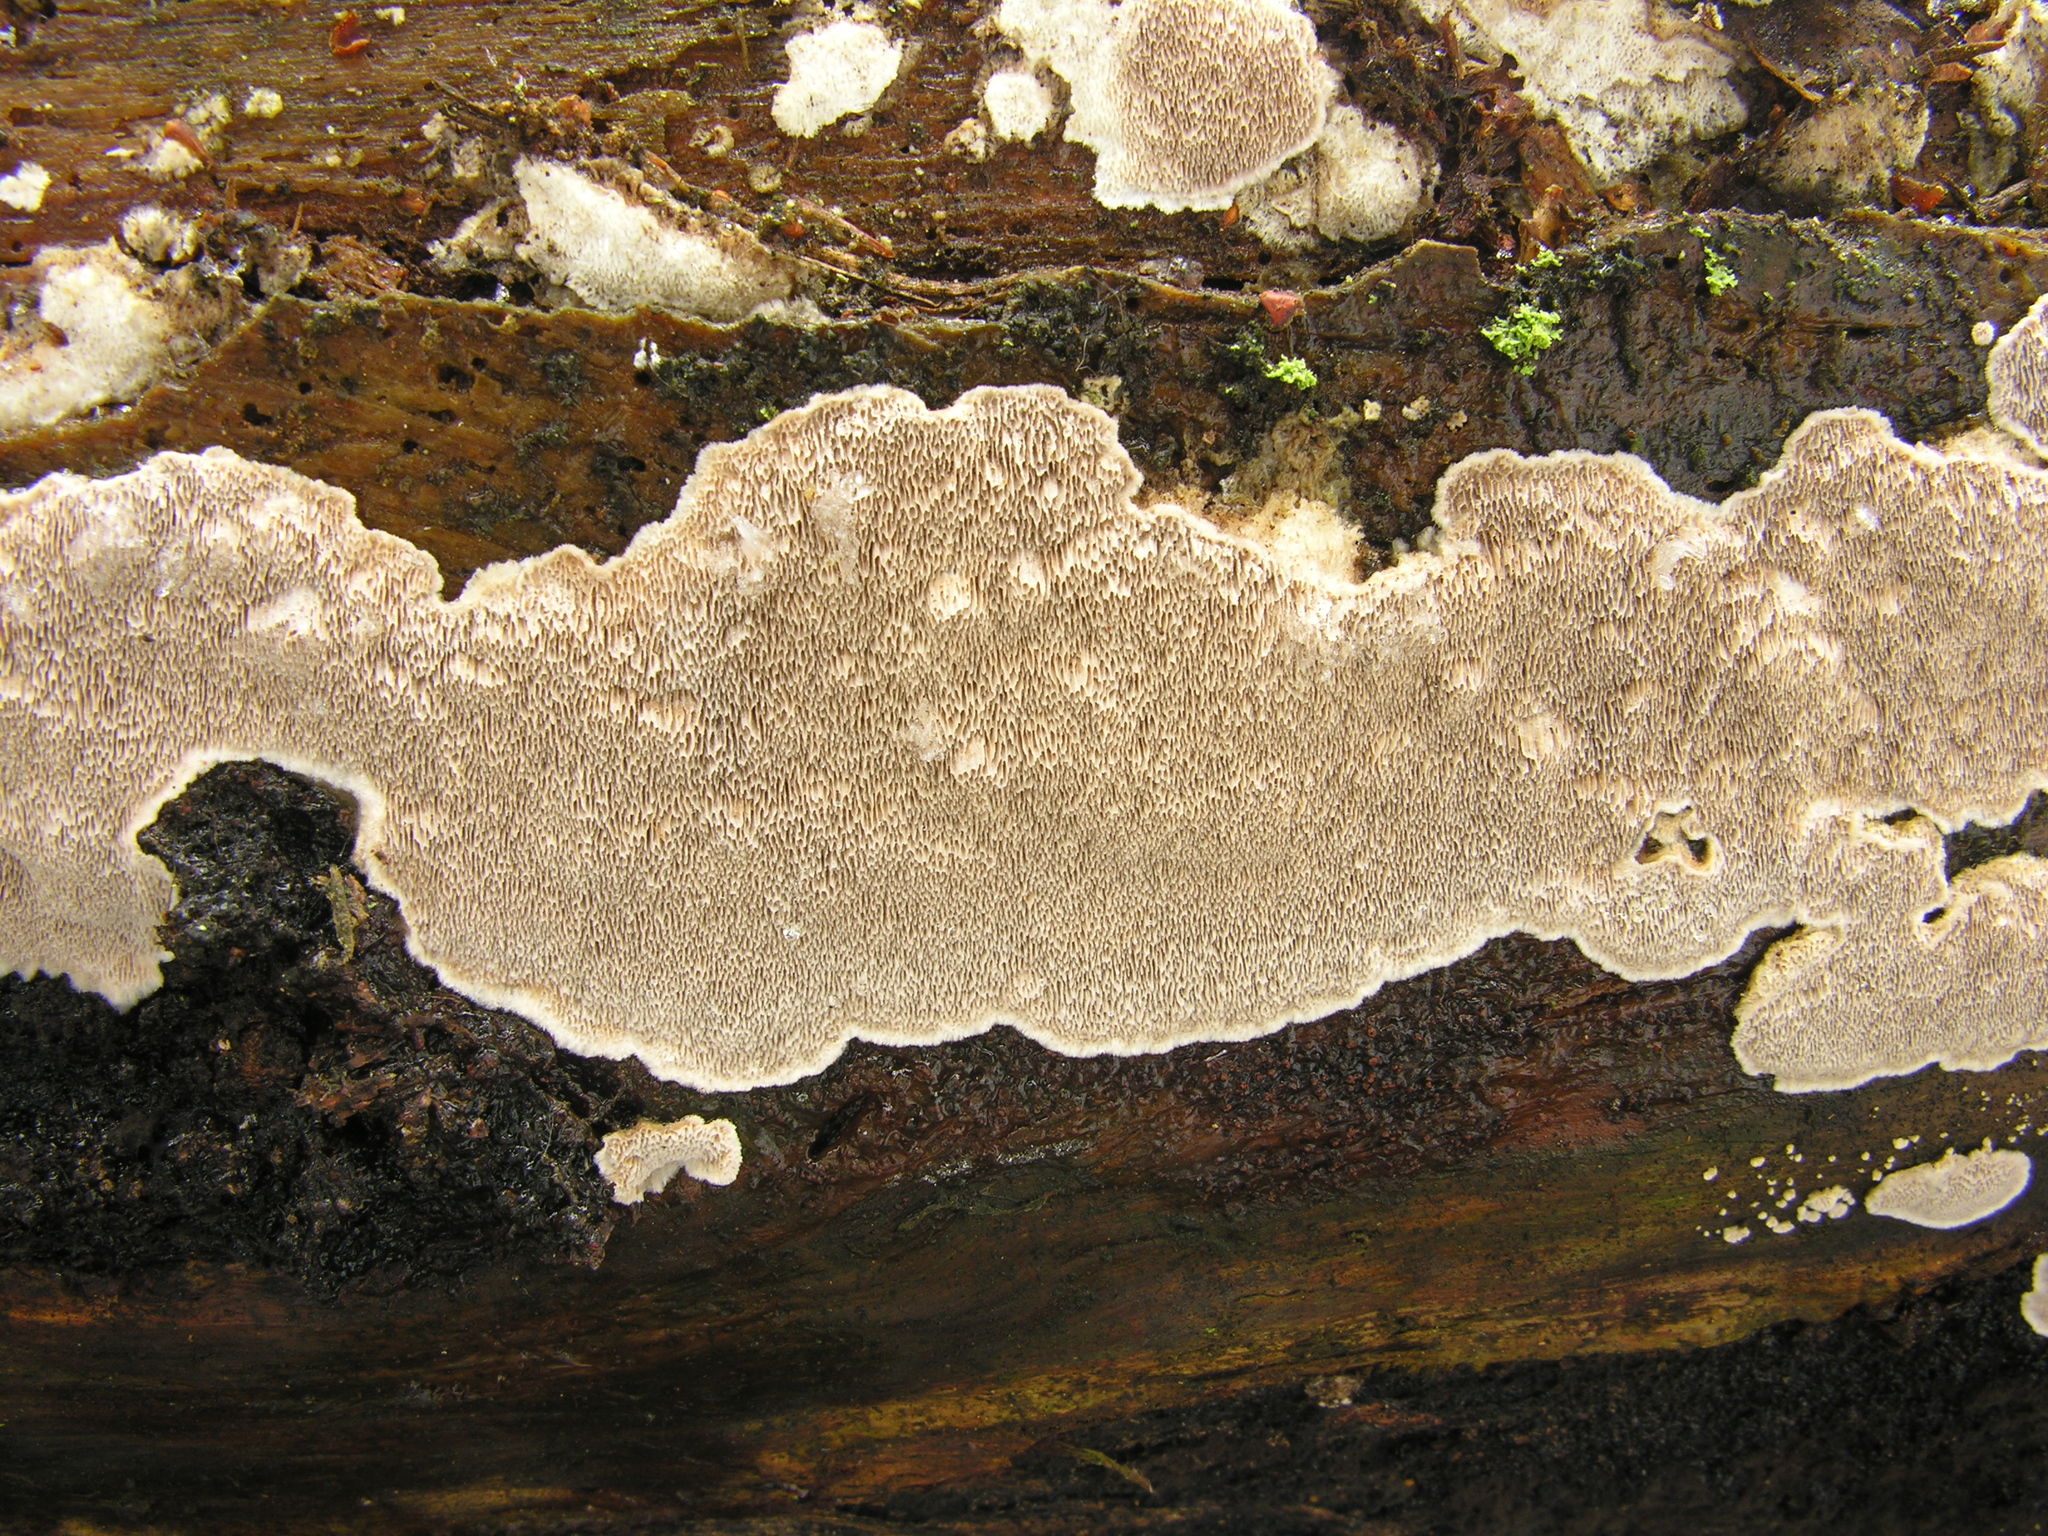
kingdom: Fungi
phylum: Basidiomycota
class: Agaricomycetes
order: Polyporales
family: Cerrenaceae
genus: Cerrena
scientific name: Cerrena unicolor
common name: Mossy maze polypore
